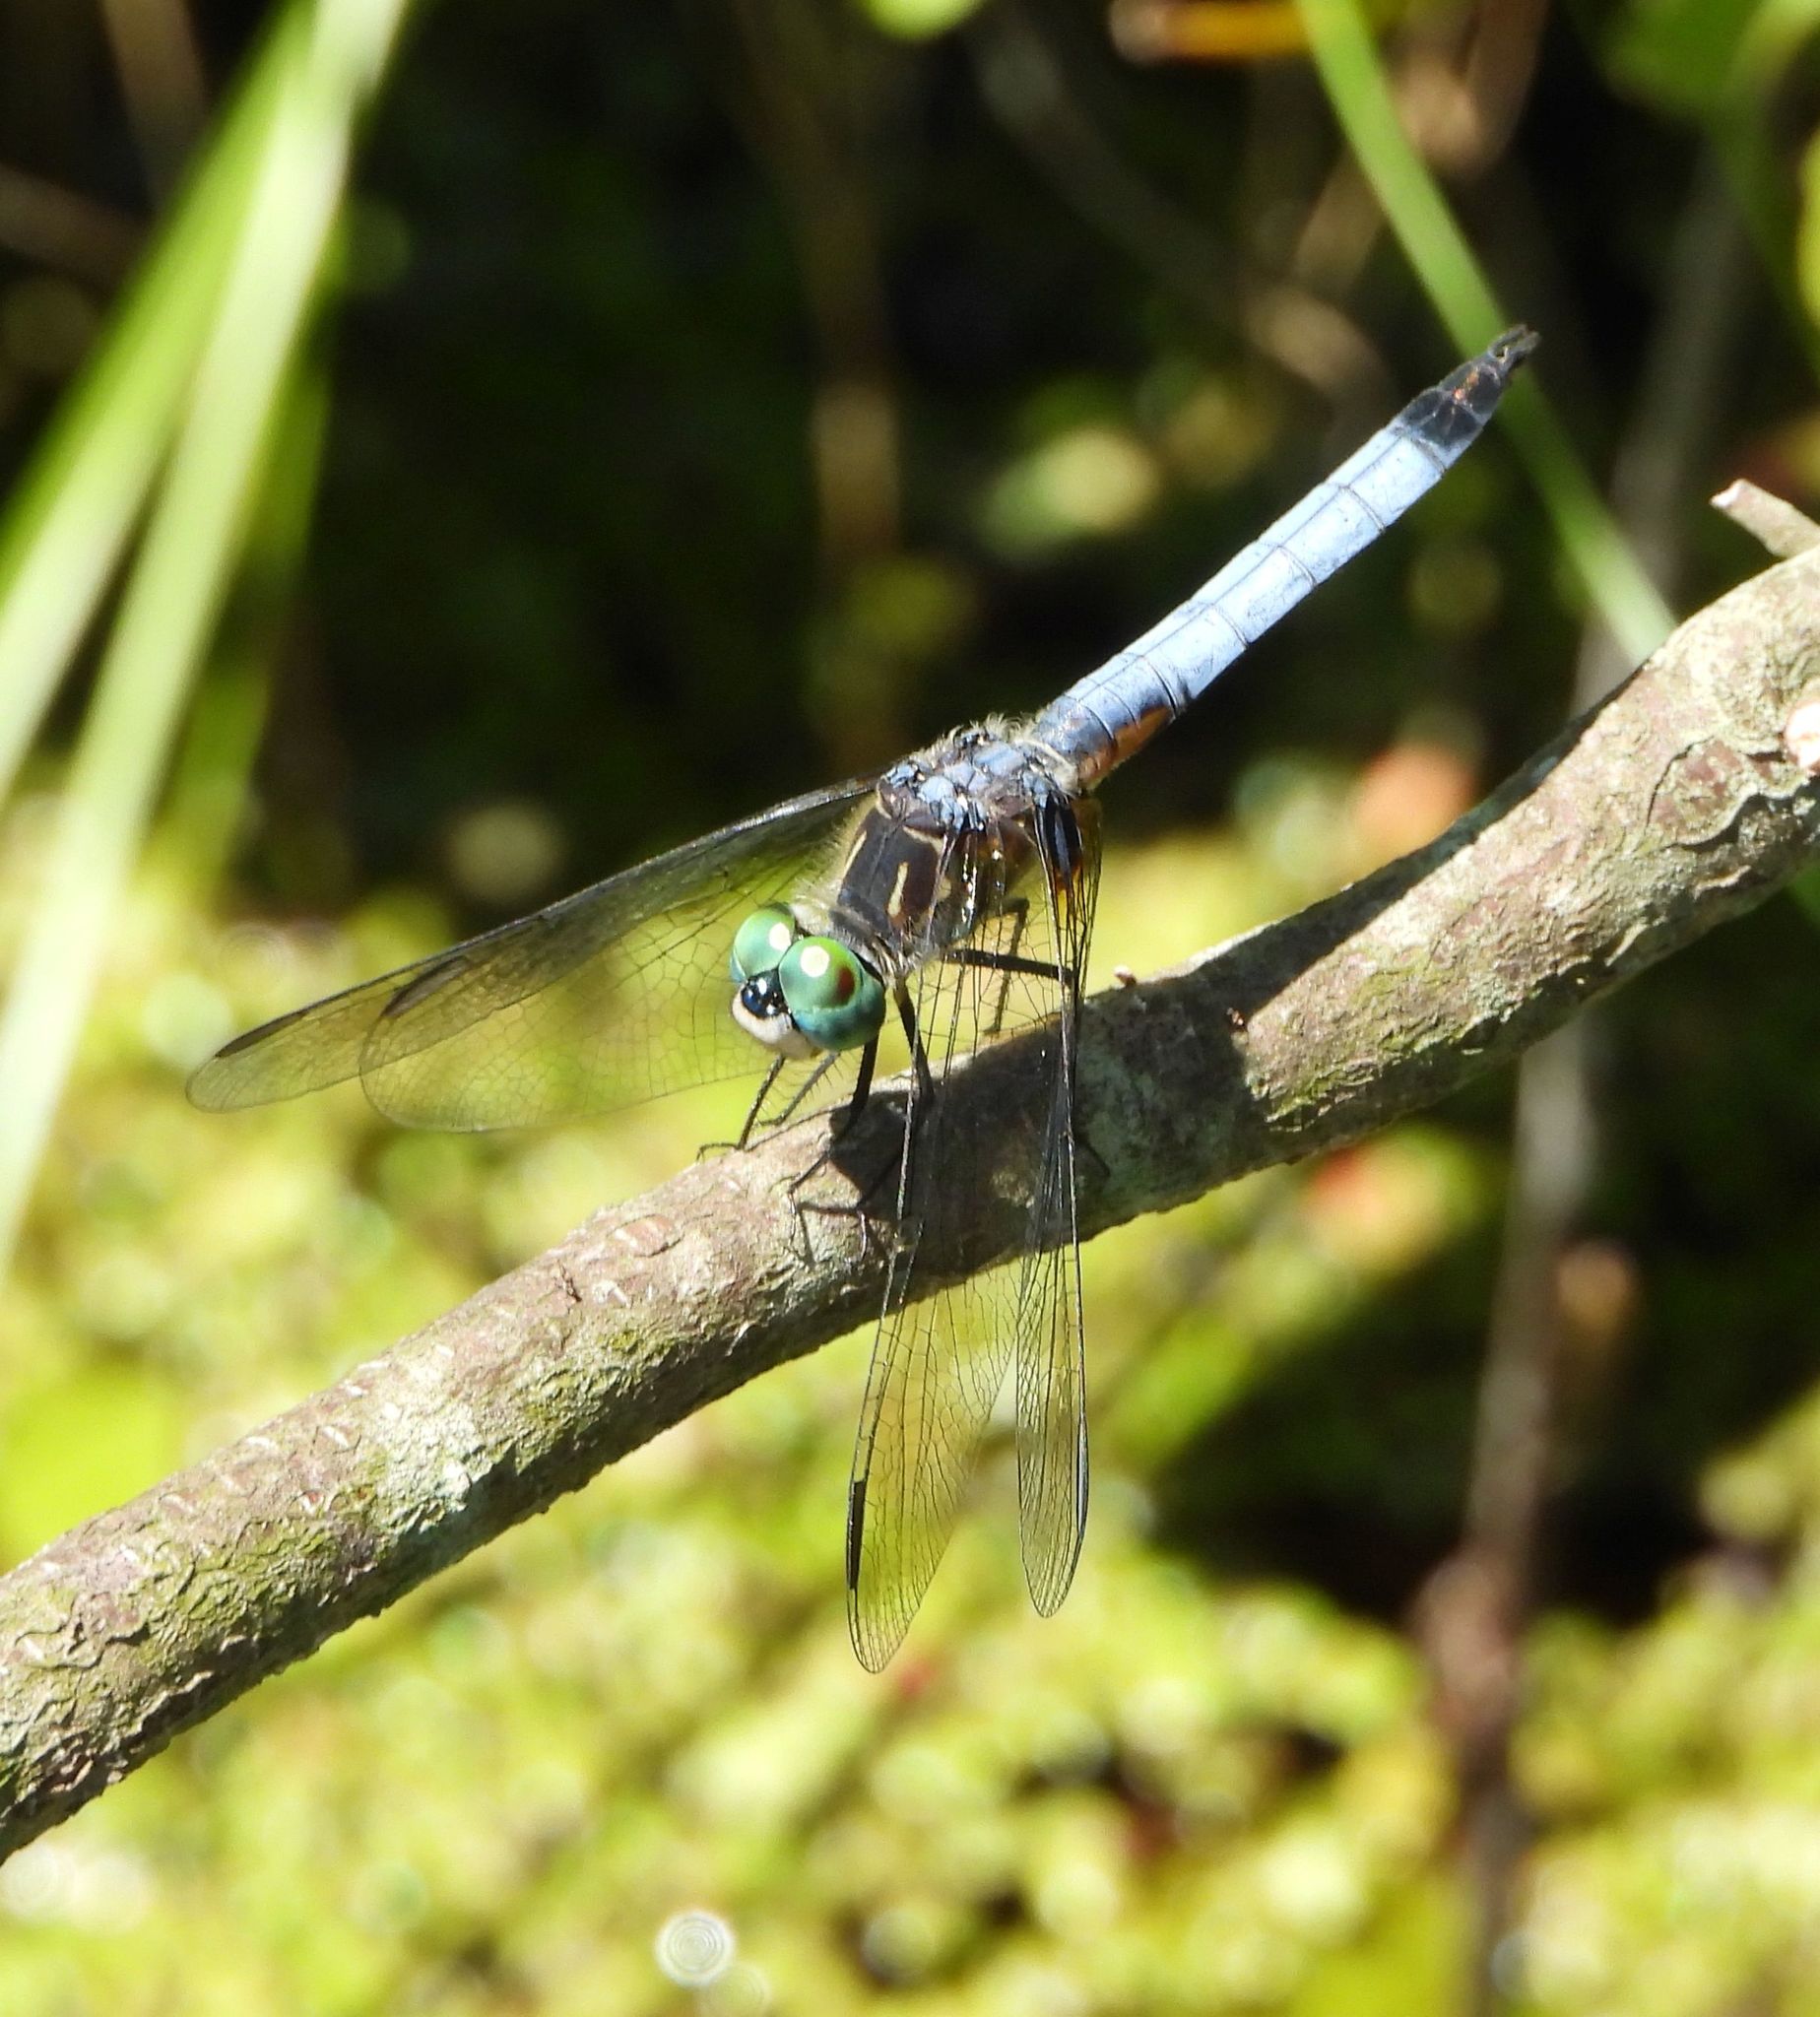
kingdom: Animalia
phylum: Arthropoda
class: Insecta
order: Odonata
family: Libellulidae
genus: Pachydiplax
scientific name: Pachydiplax longipennis
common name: Blue dasher
